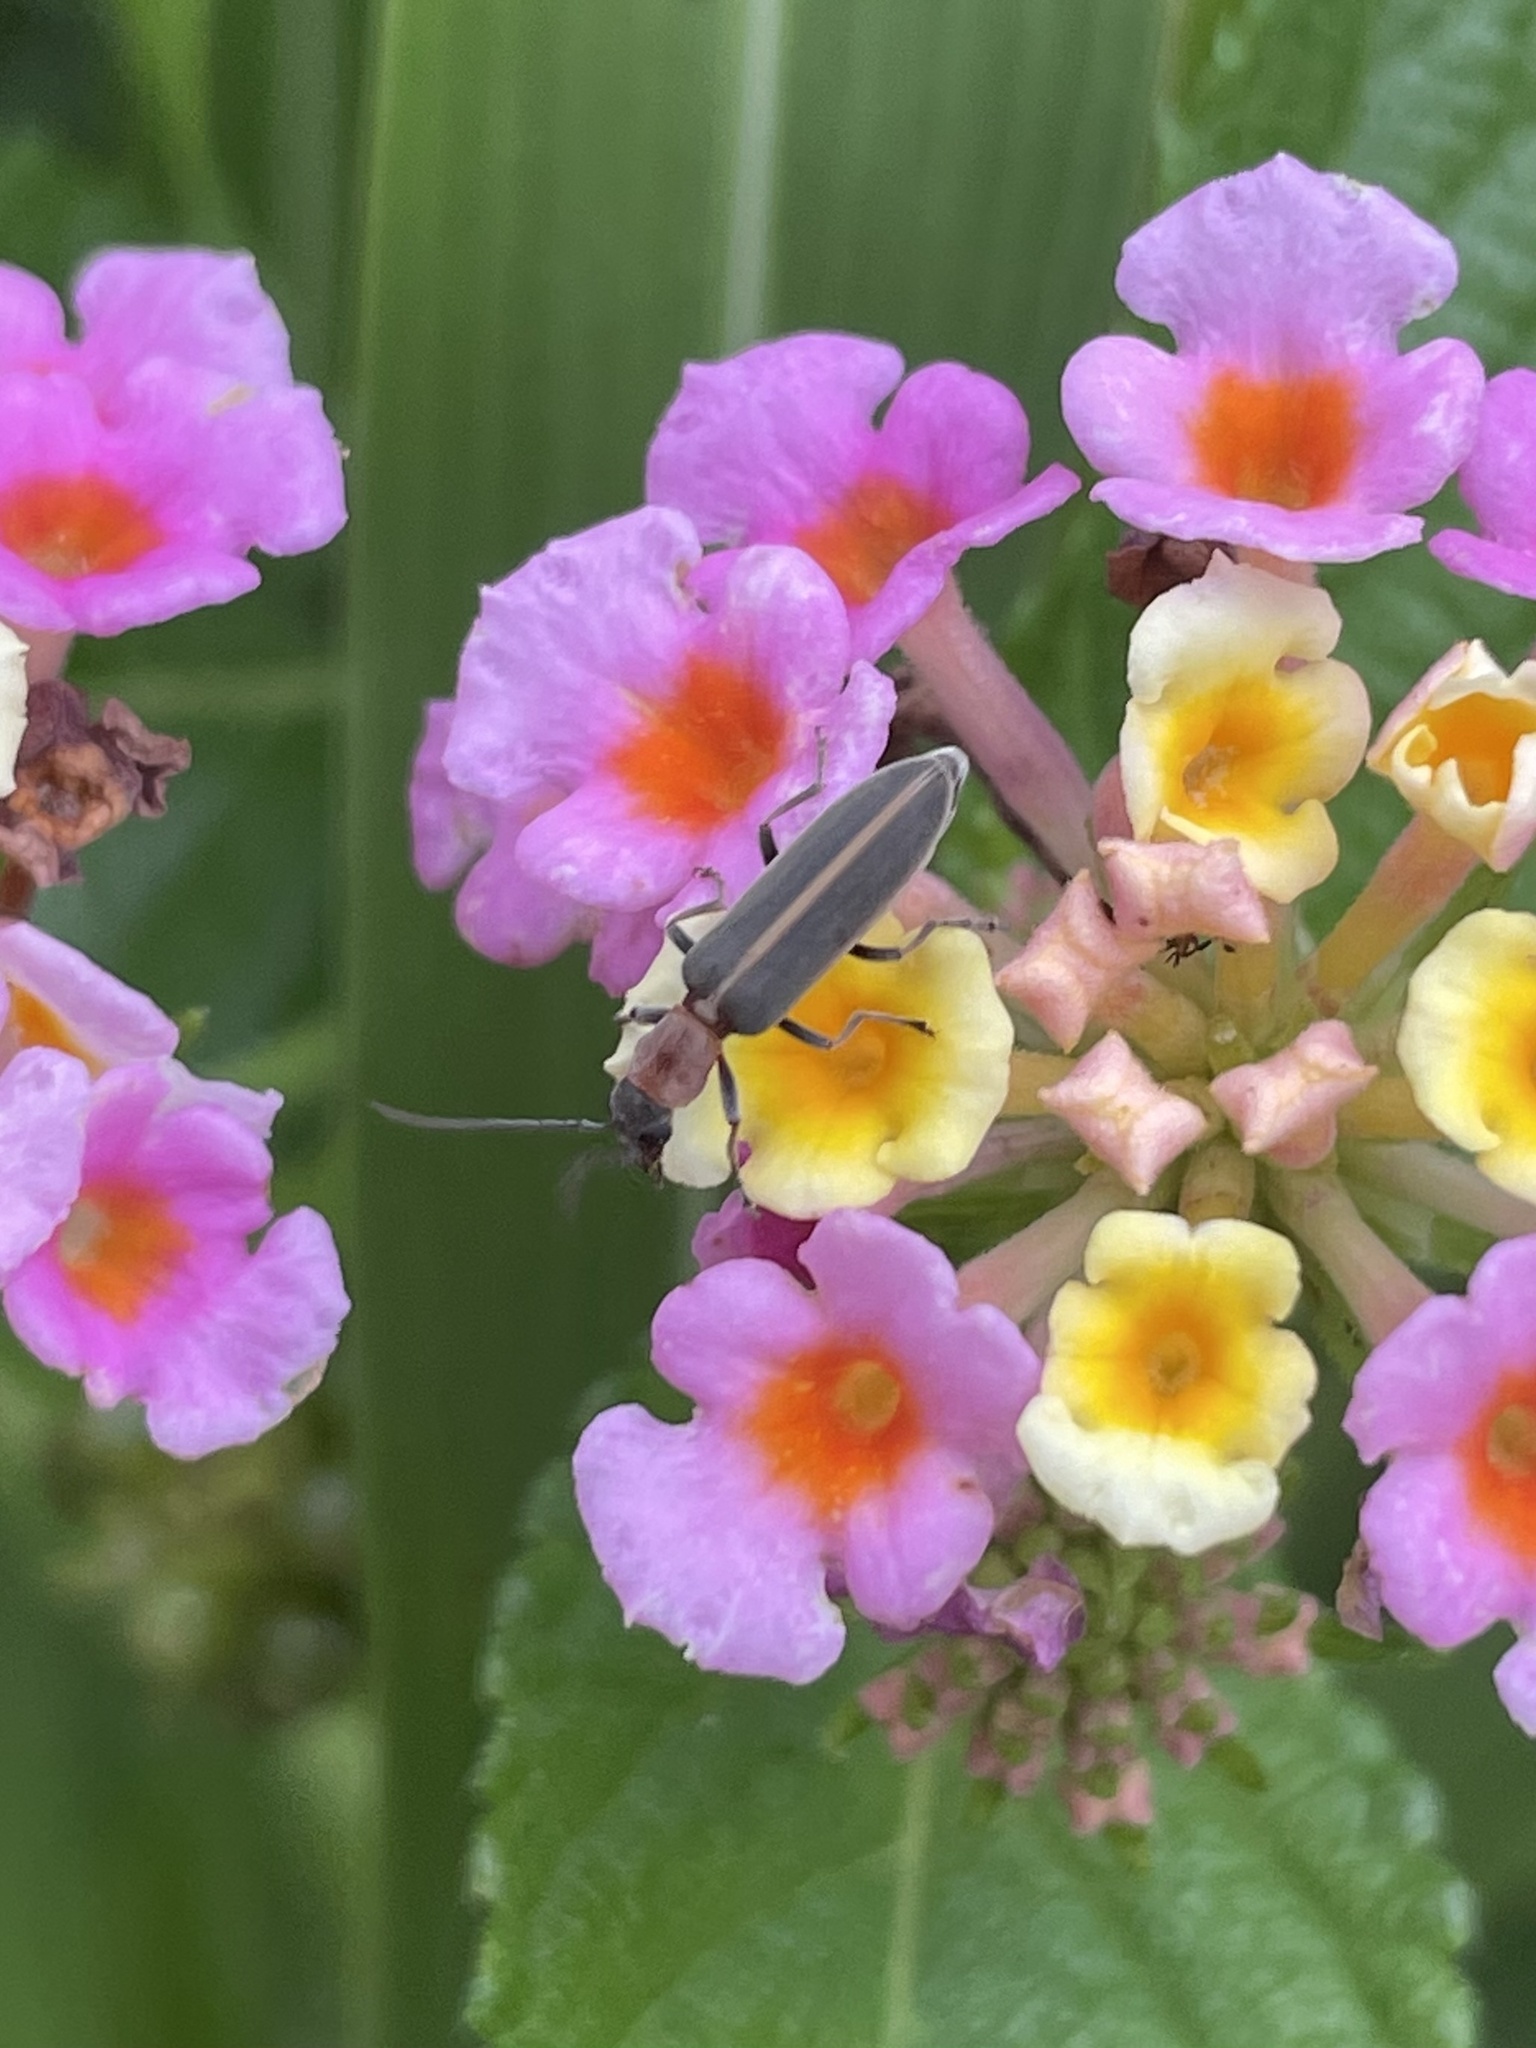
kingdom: Animalia
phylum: Arthropoda
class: Insecta
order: Coleoptera
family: Oedemeridae
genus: Oxacis
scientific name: Oxacis cana
